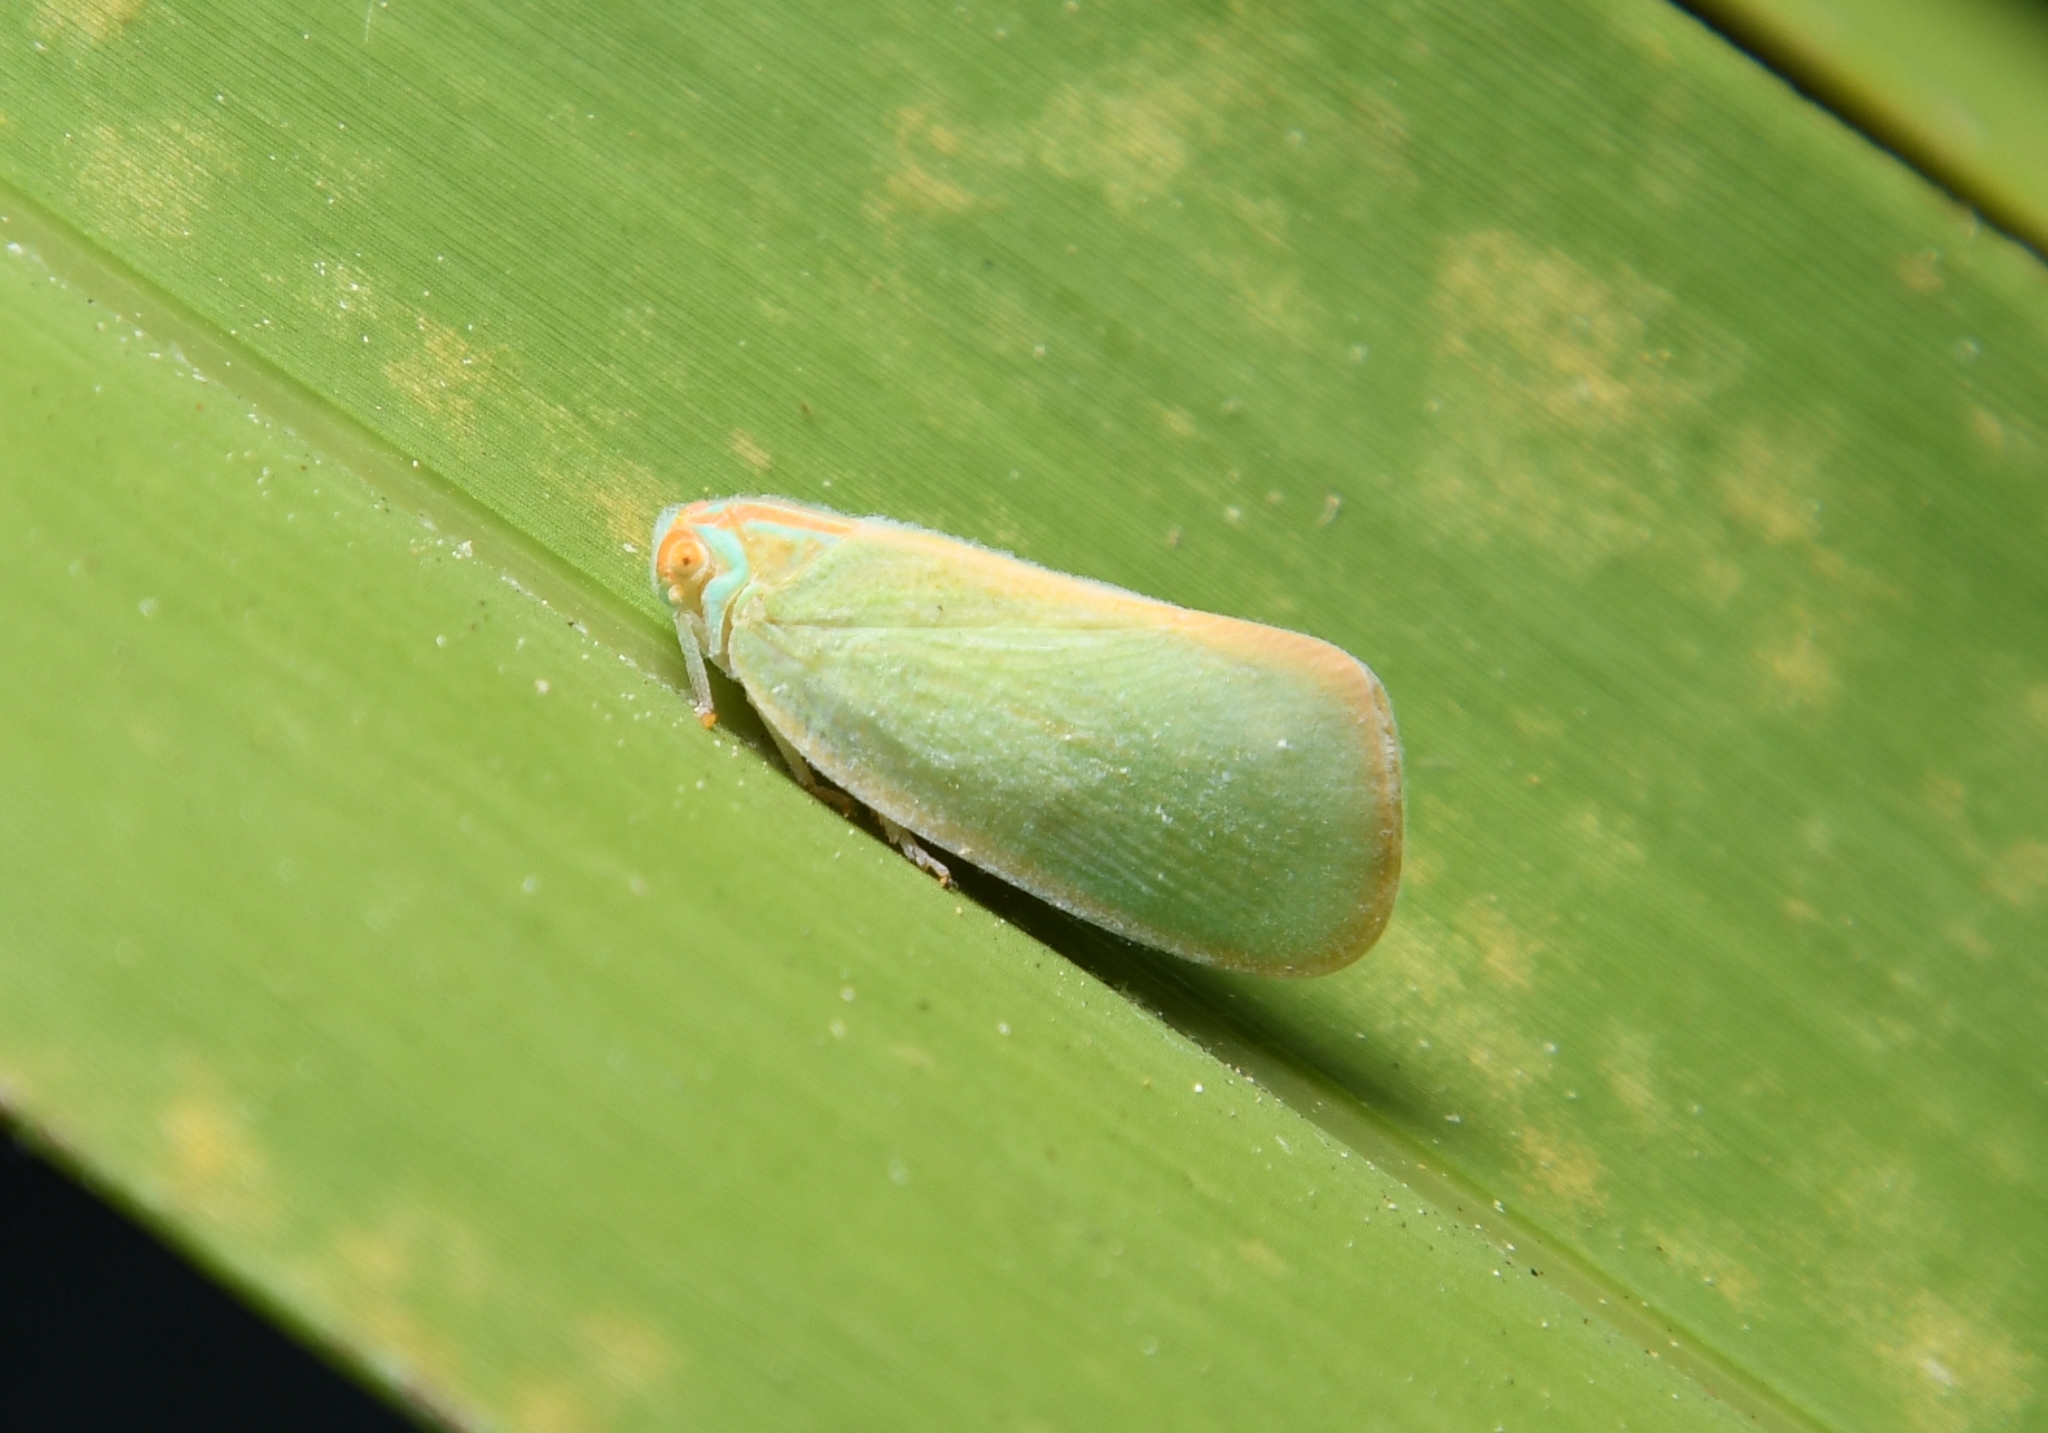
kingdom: Animalia
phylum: Arthropoda
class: Insecta
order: Hemiptera
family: Flatidae
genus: Ormenaria
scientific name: Ormenaria rufifascia
